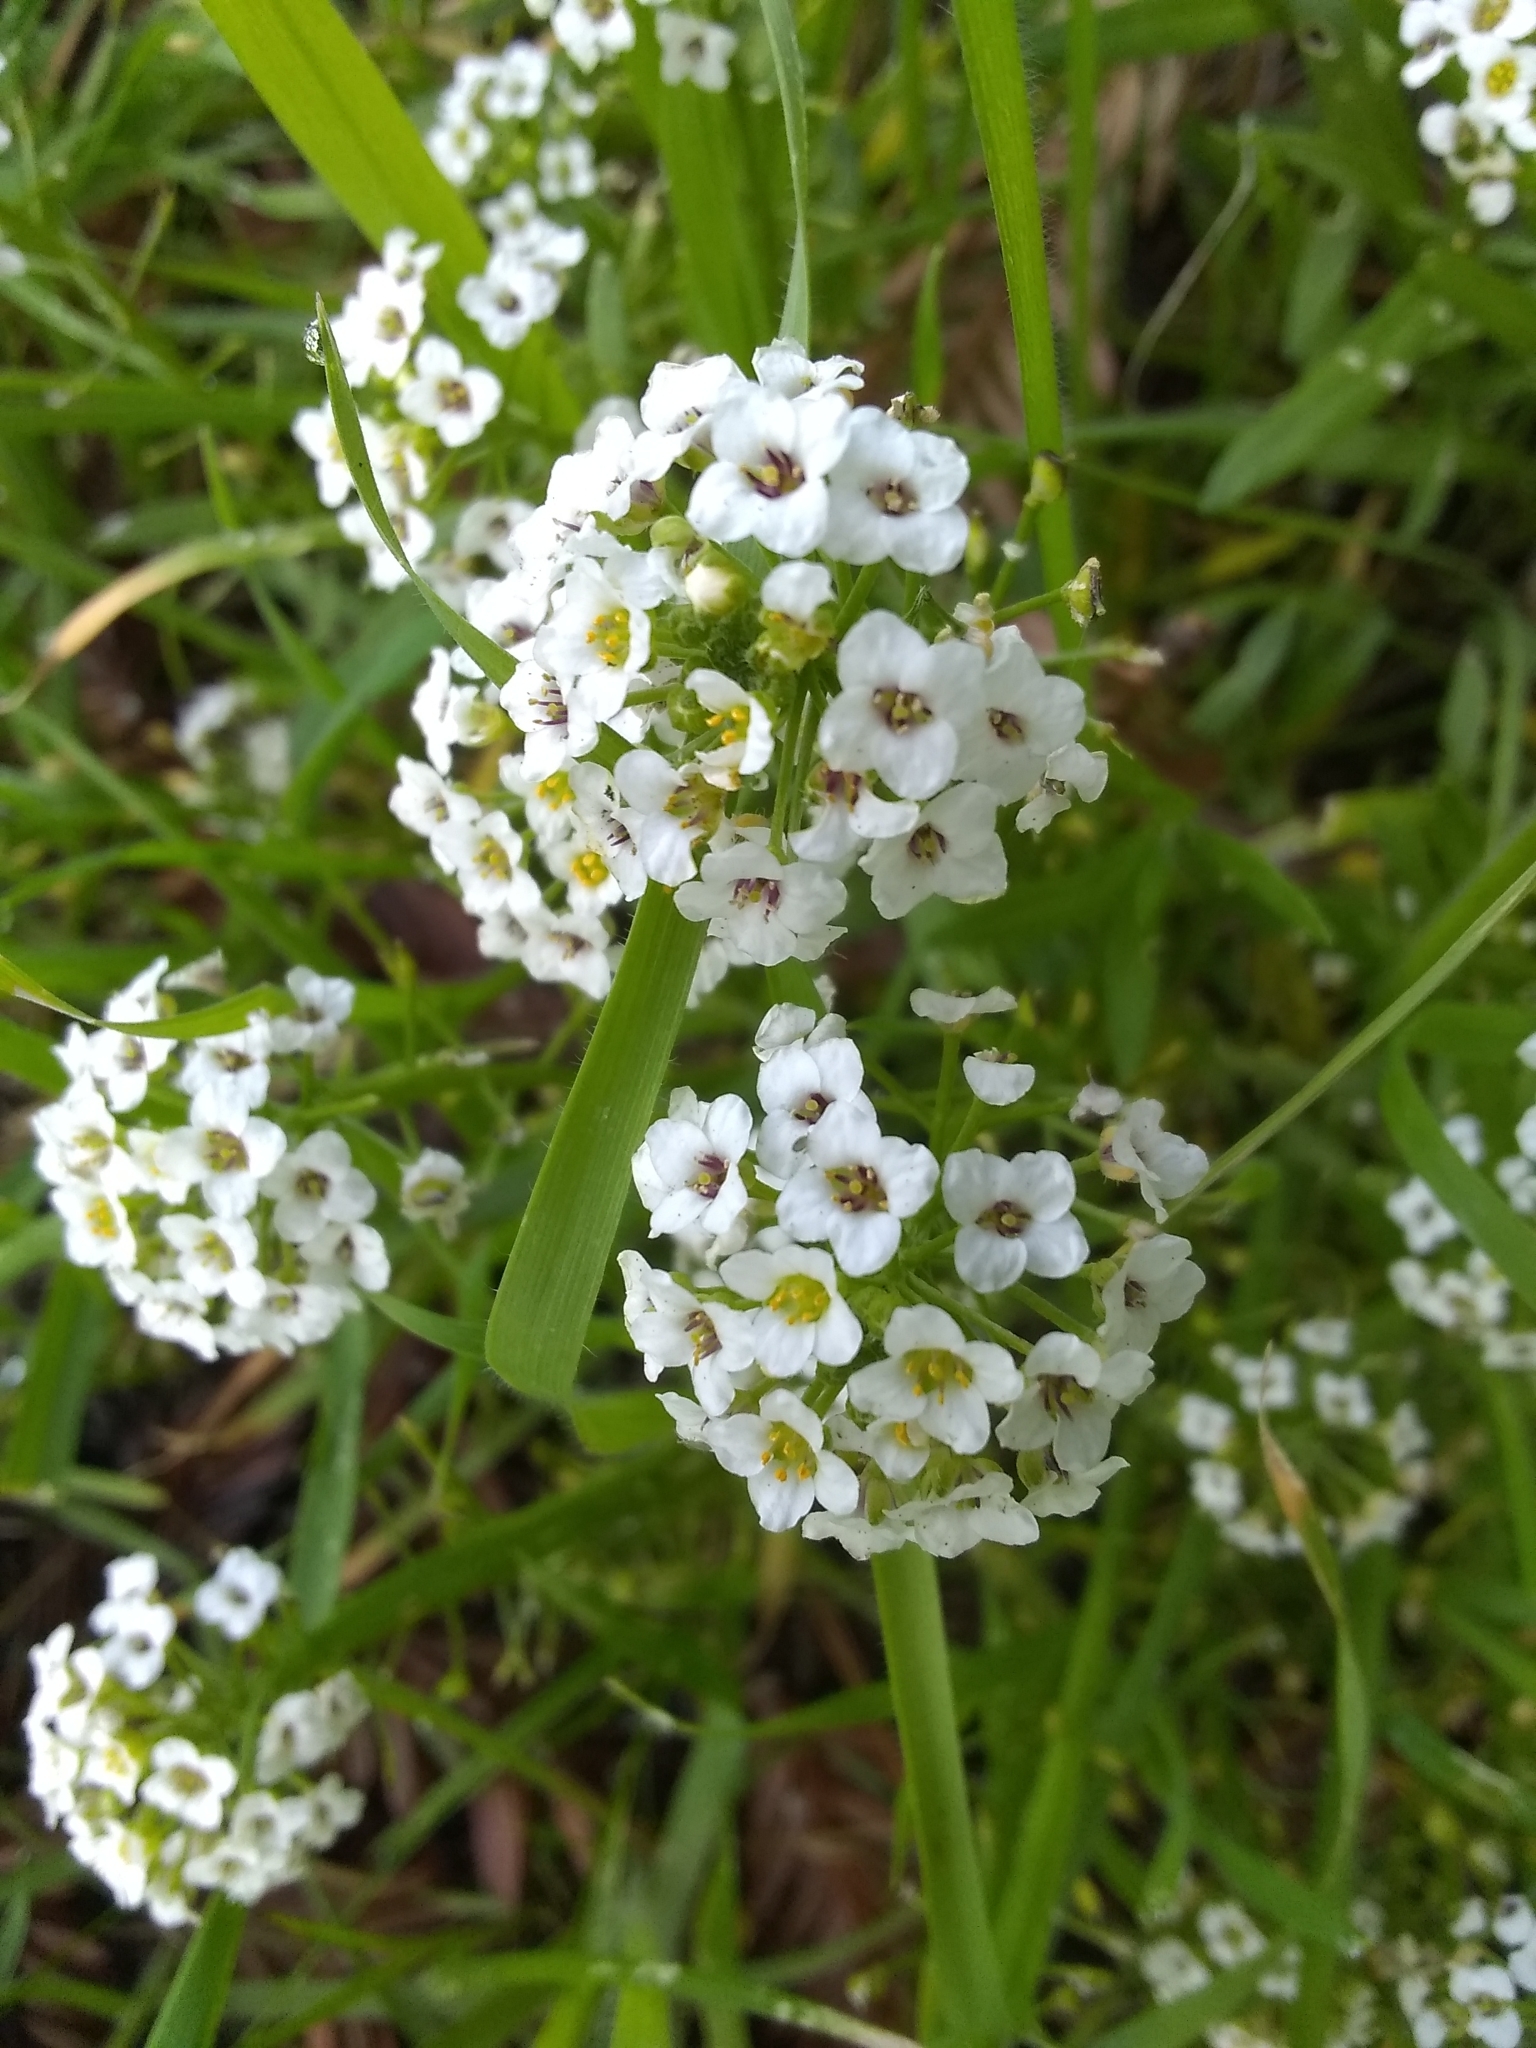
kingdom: Plantae
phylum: Tracheophyta
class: Magnoliopsida
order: Brassicales
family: Brassicaceae
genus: Lobularia
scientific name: Lobularia maritima
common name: Sweet alison
